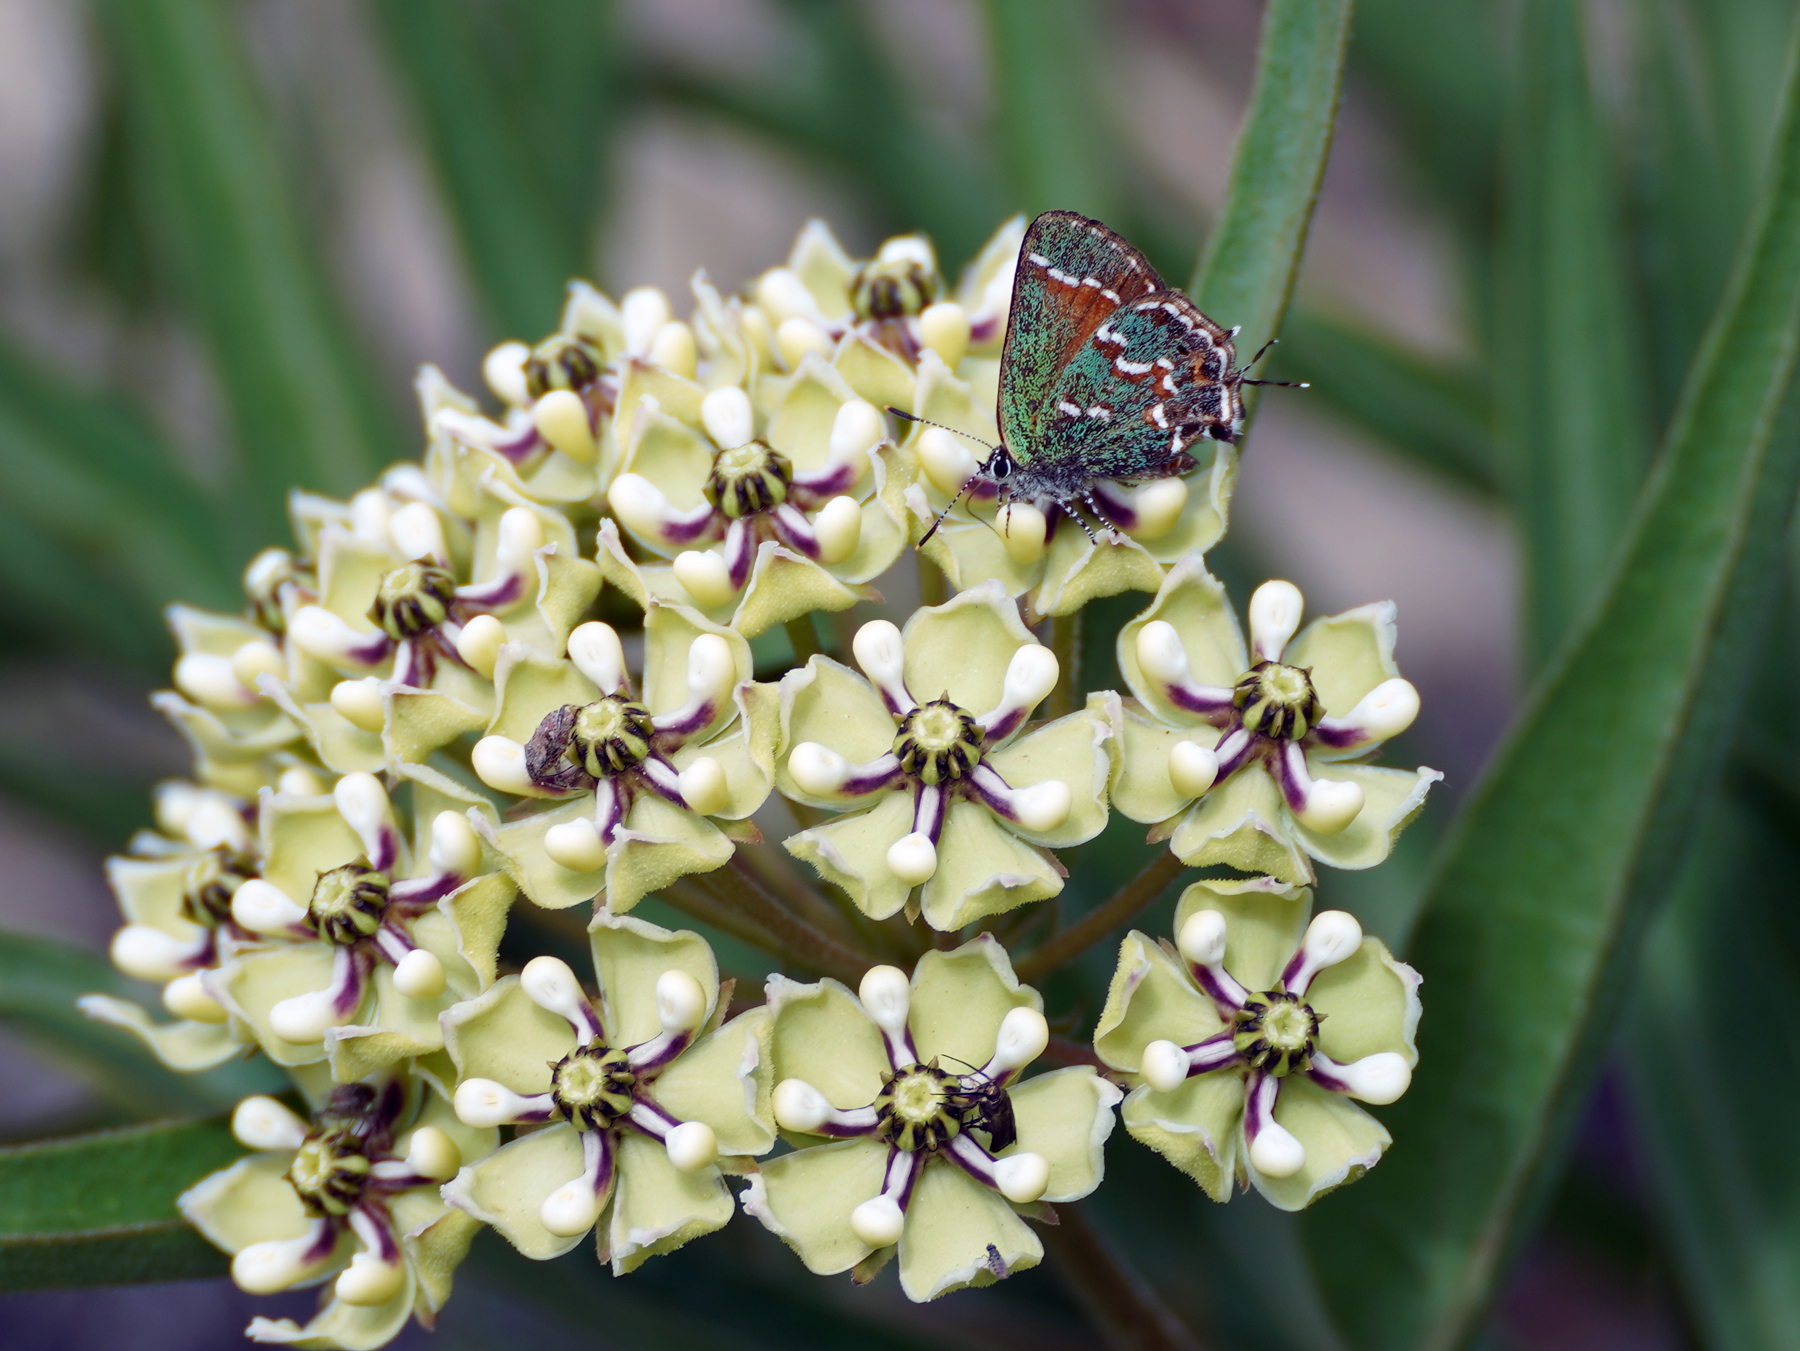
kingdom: Plantae
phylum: Tracheophyta
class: Magnoliopsida
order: Gentianales
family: Apocynaceae
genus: Asclepias
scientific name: Asclepias asperula
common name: Antelope horns
